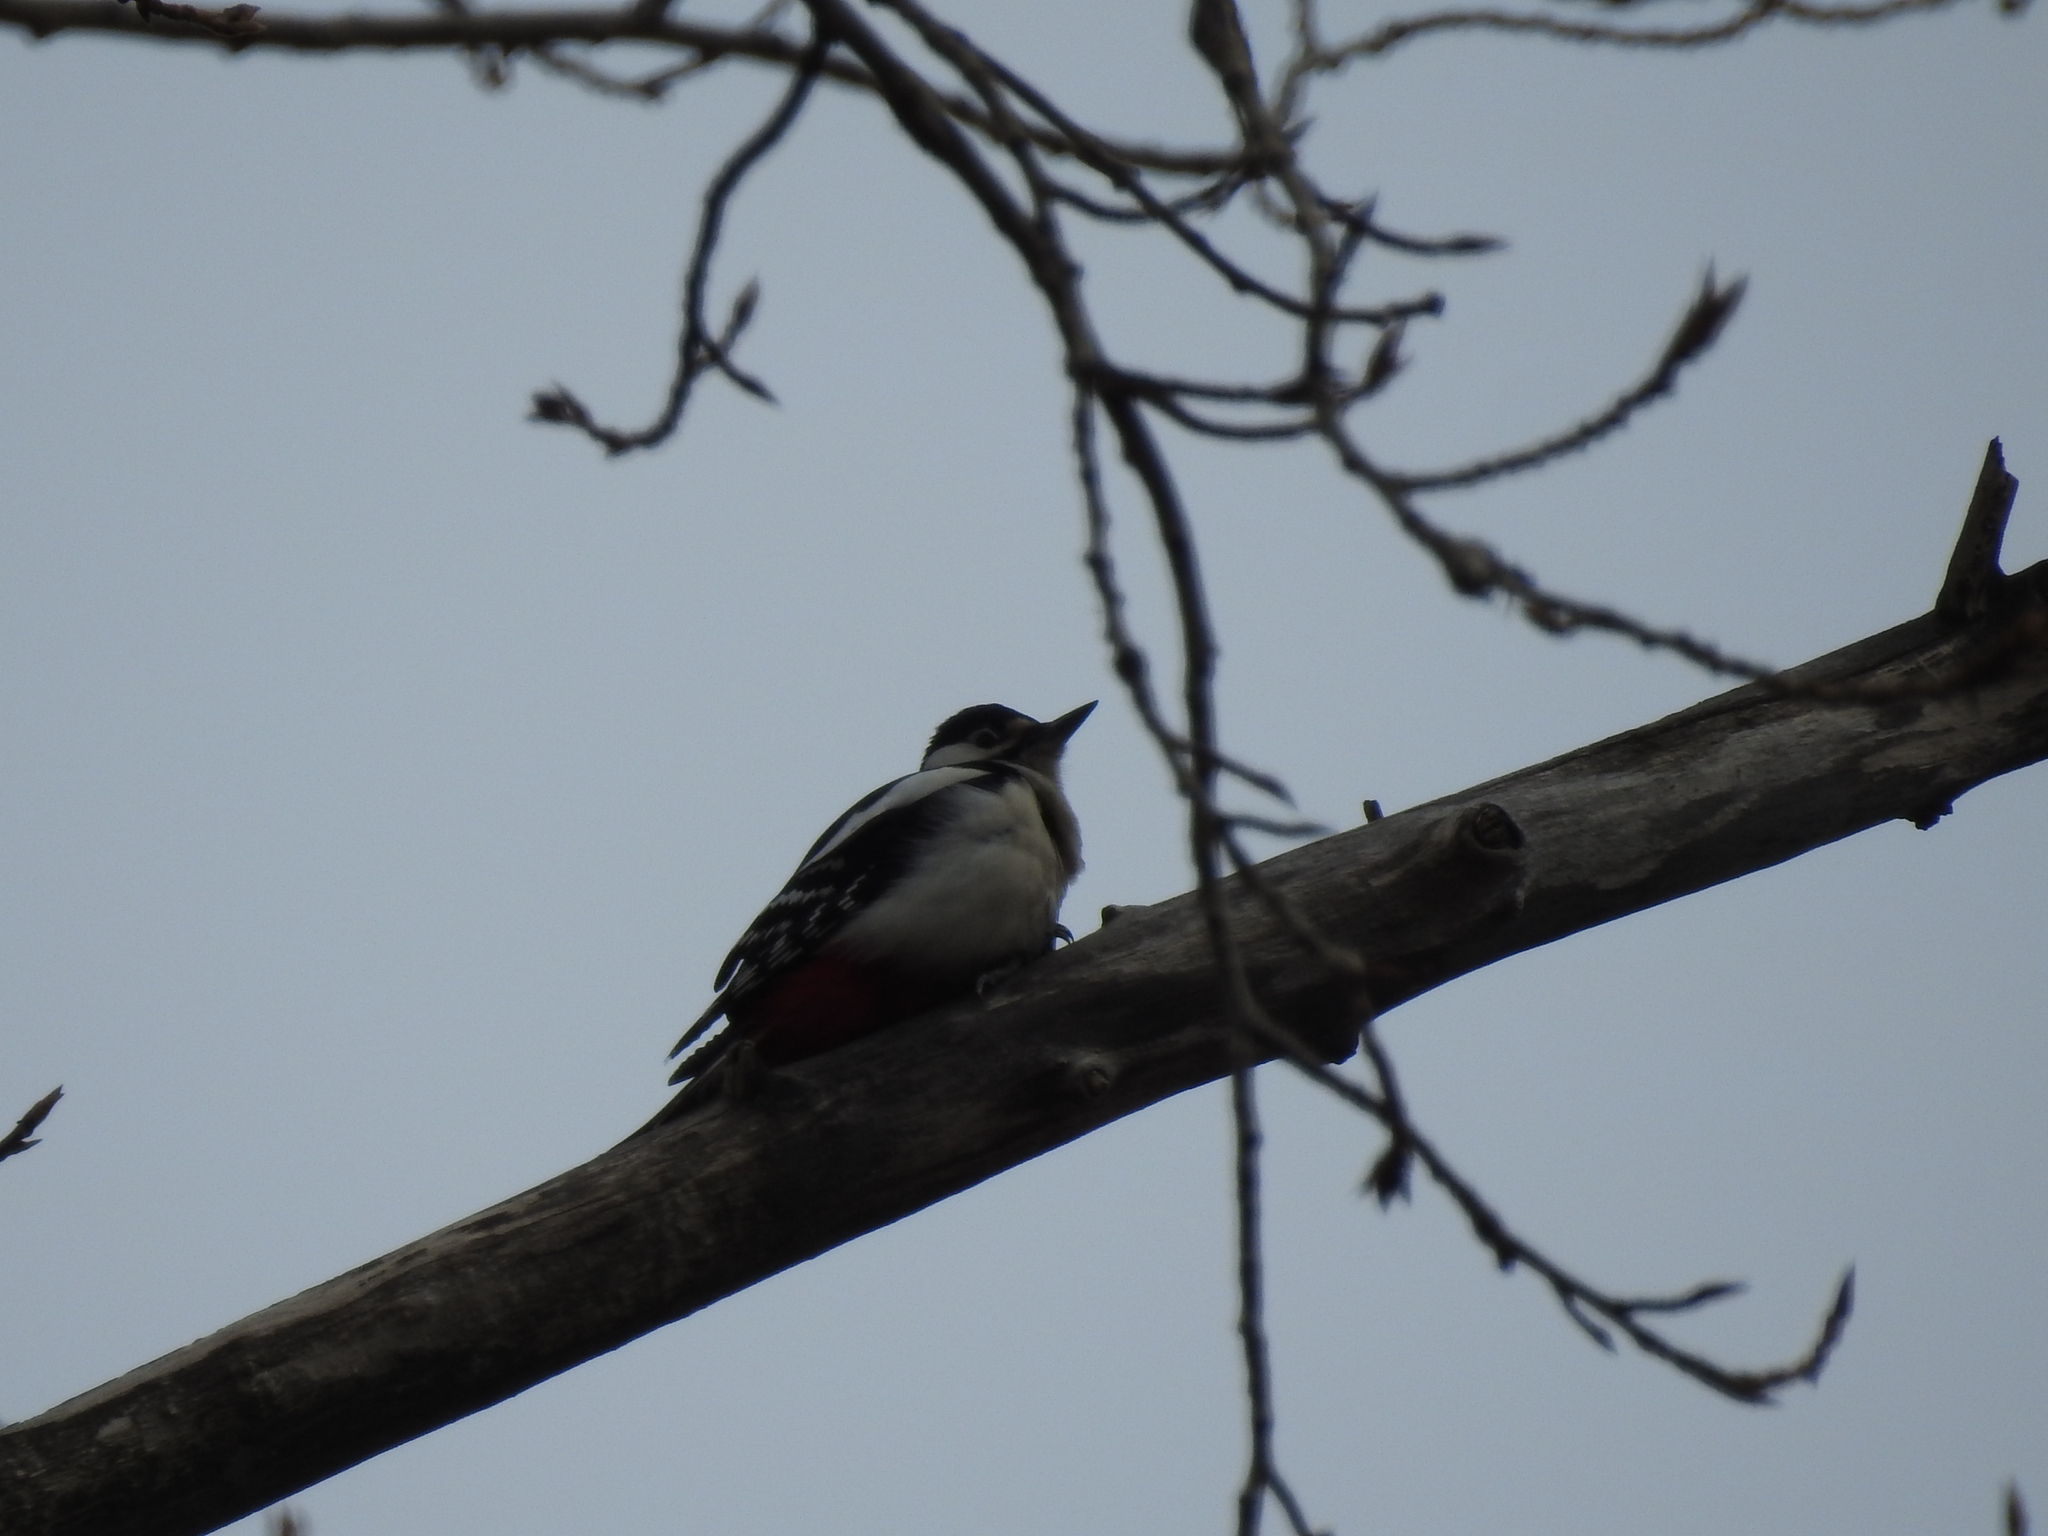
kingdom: Animalia
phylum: Chordata
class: Aves
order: Piciformes
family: Picidae
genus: Dendrocopos
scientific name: Dendrocopos major
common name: Great spotted woodpecker
